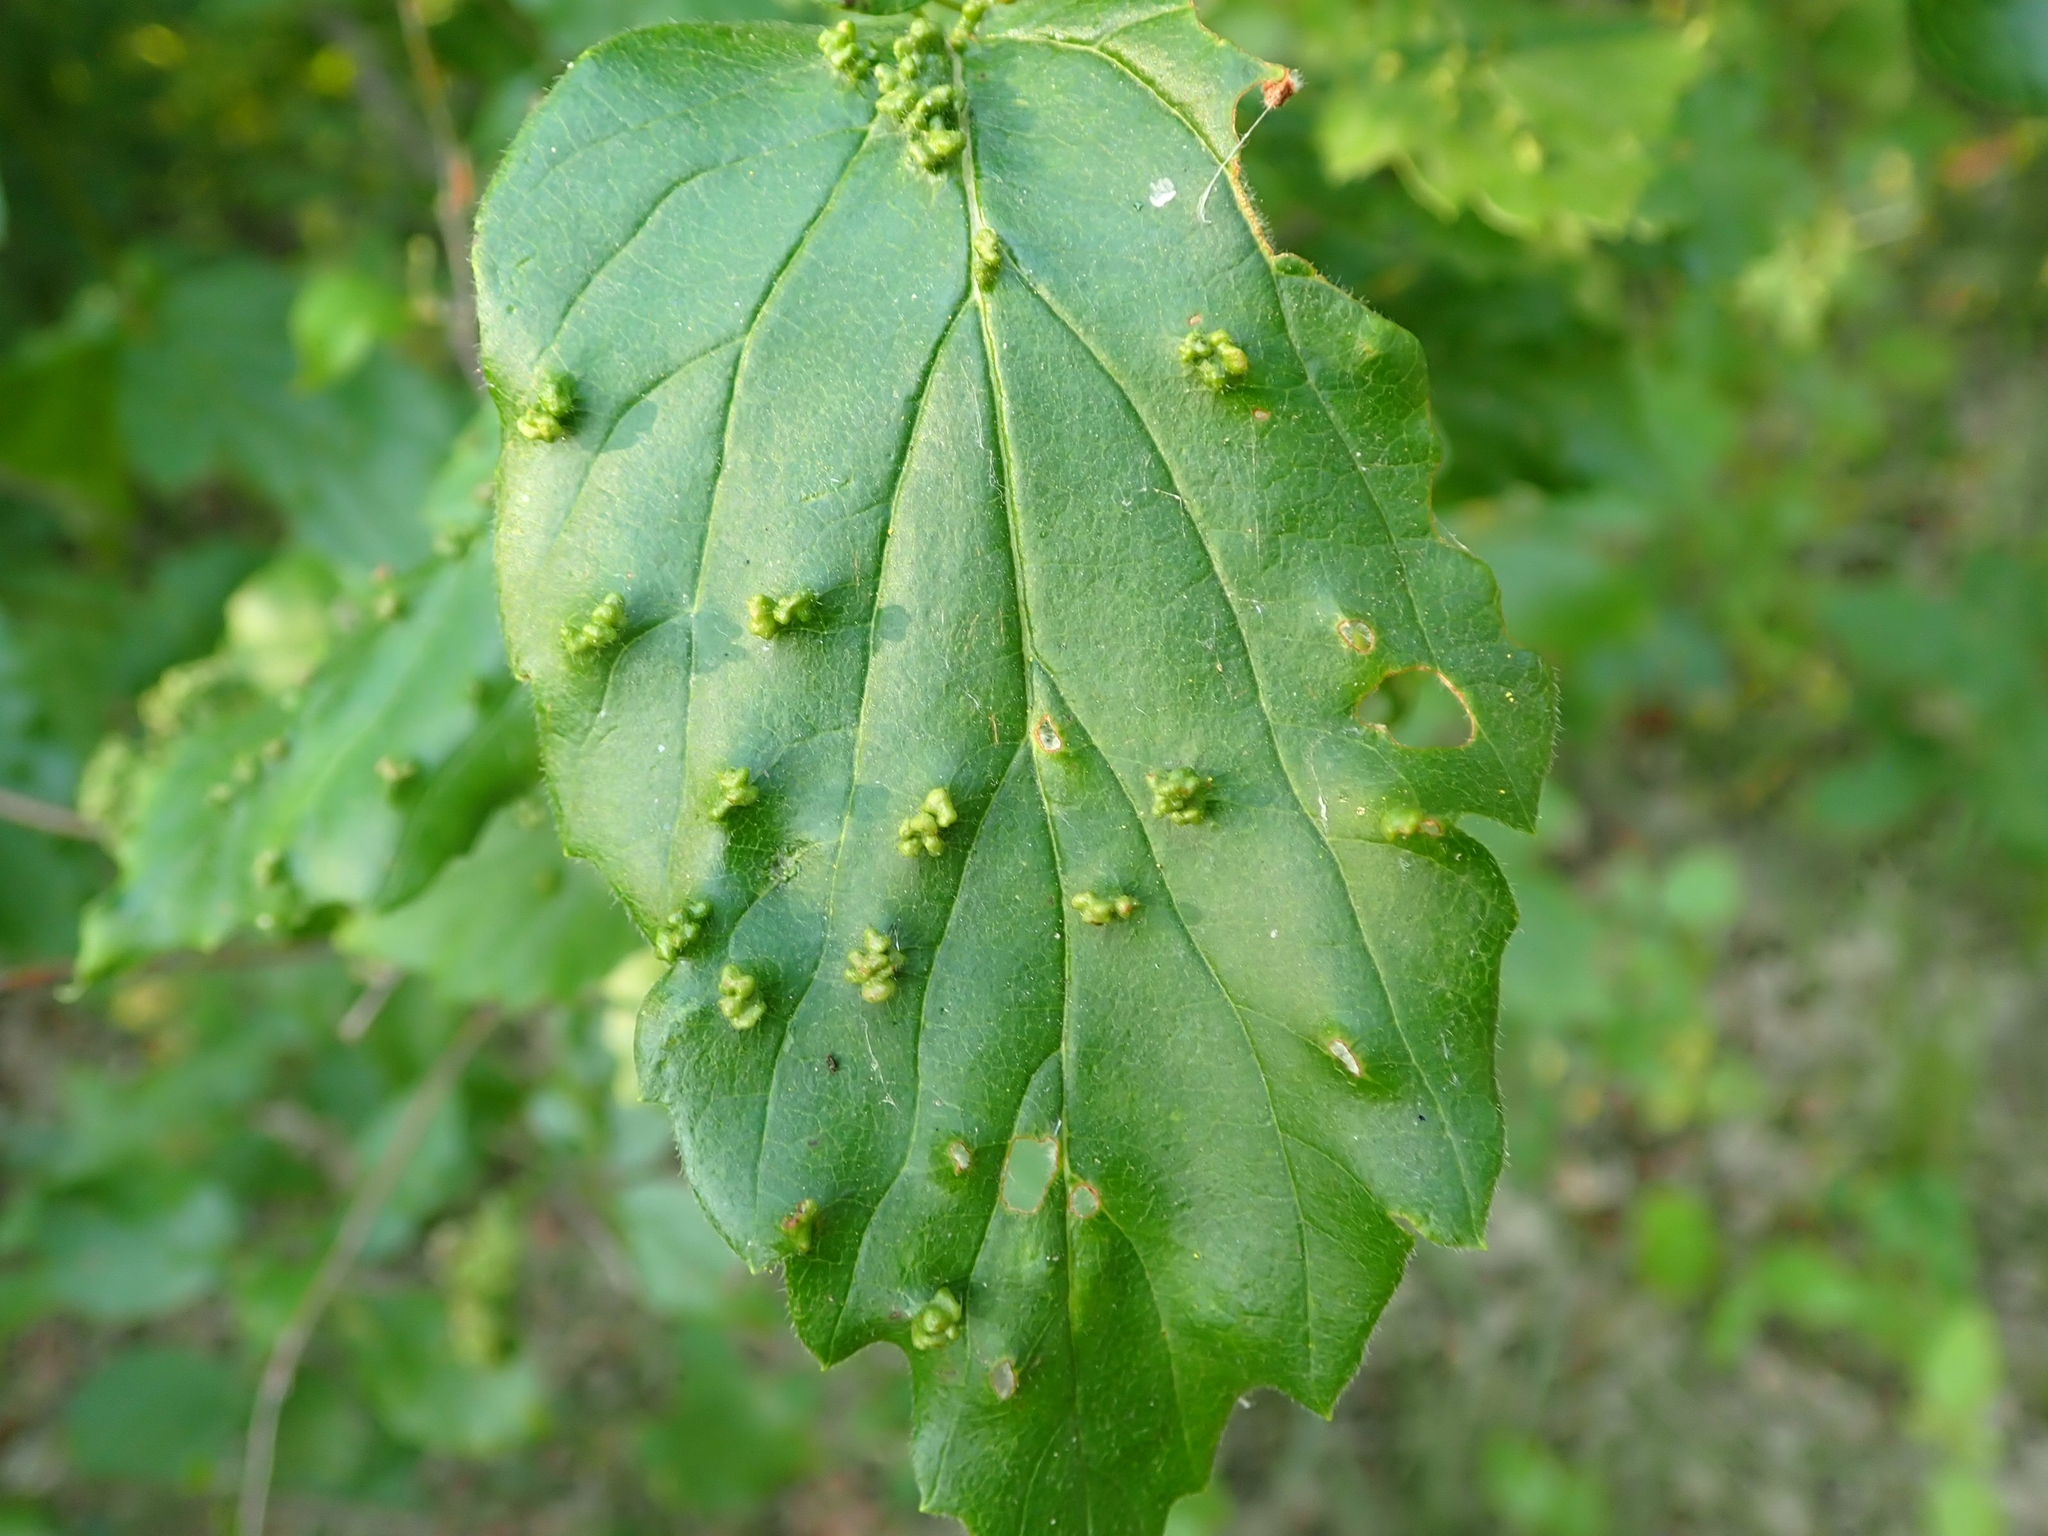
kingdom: Animalia
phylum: Arthropoda
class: Arachnida
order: Trombidiformes
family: Eriophyidae
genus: Eriophyes
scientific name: Eriophyes
